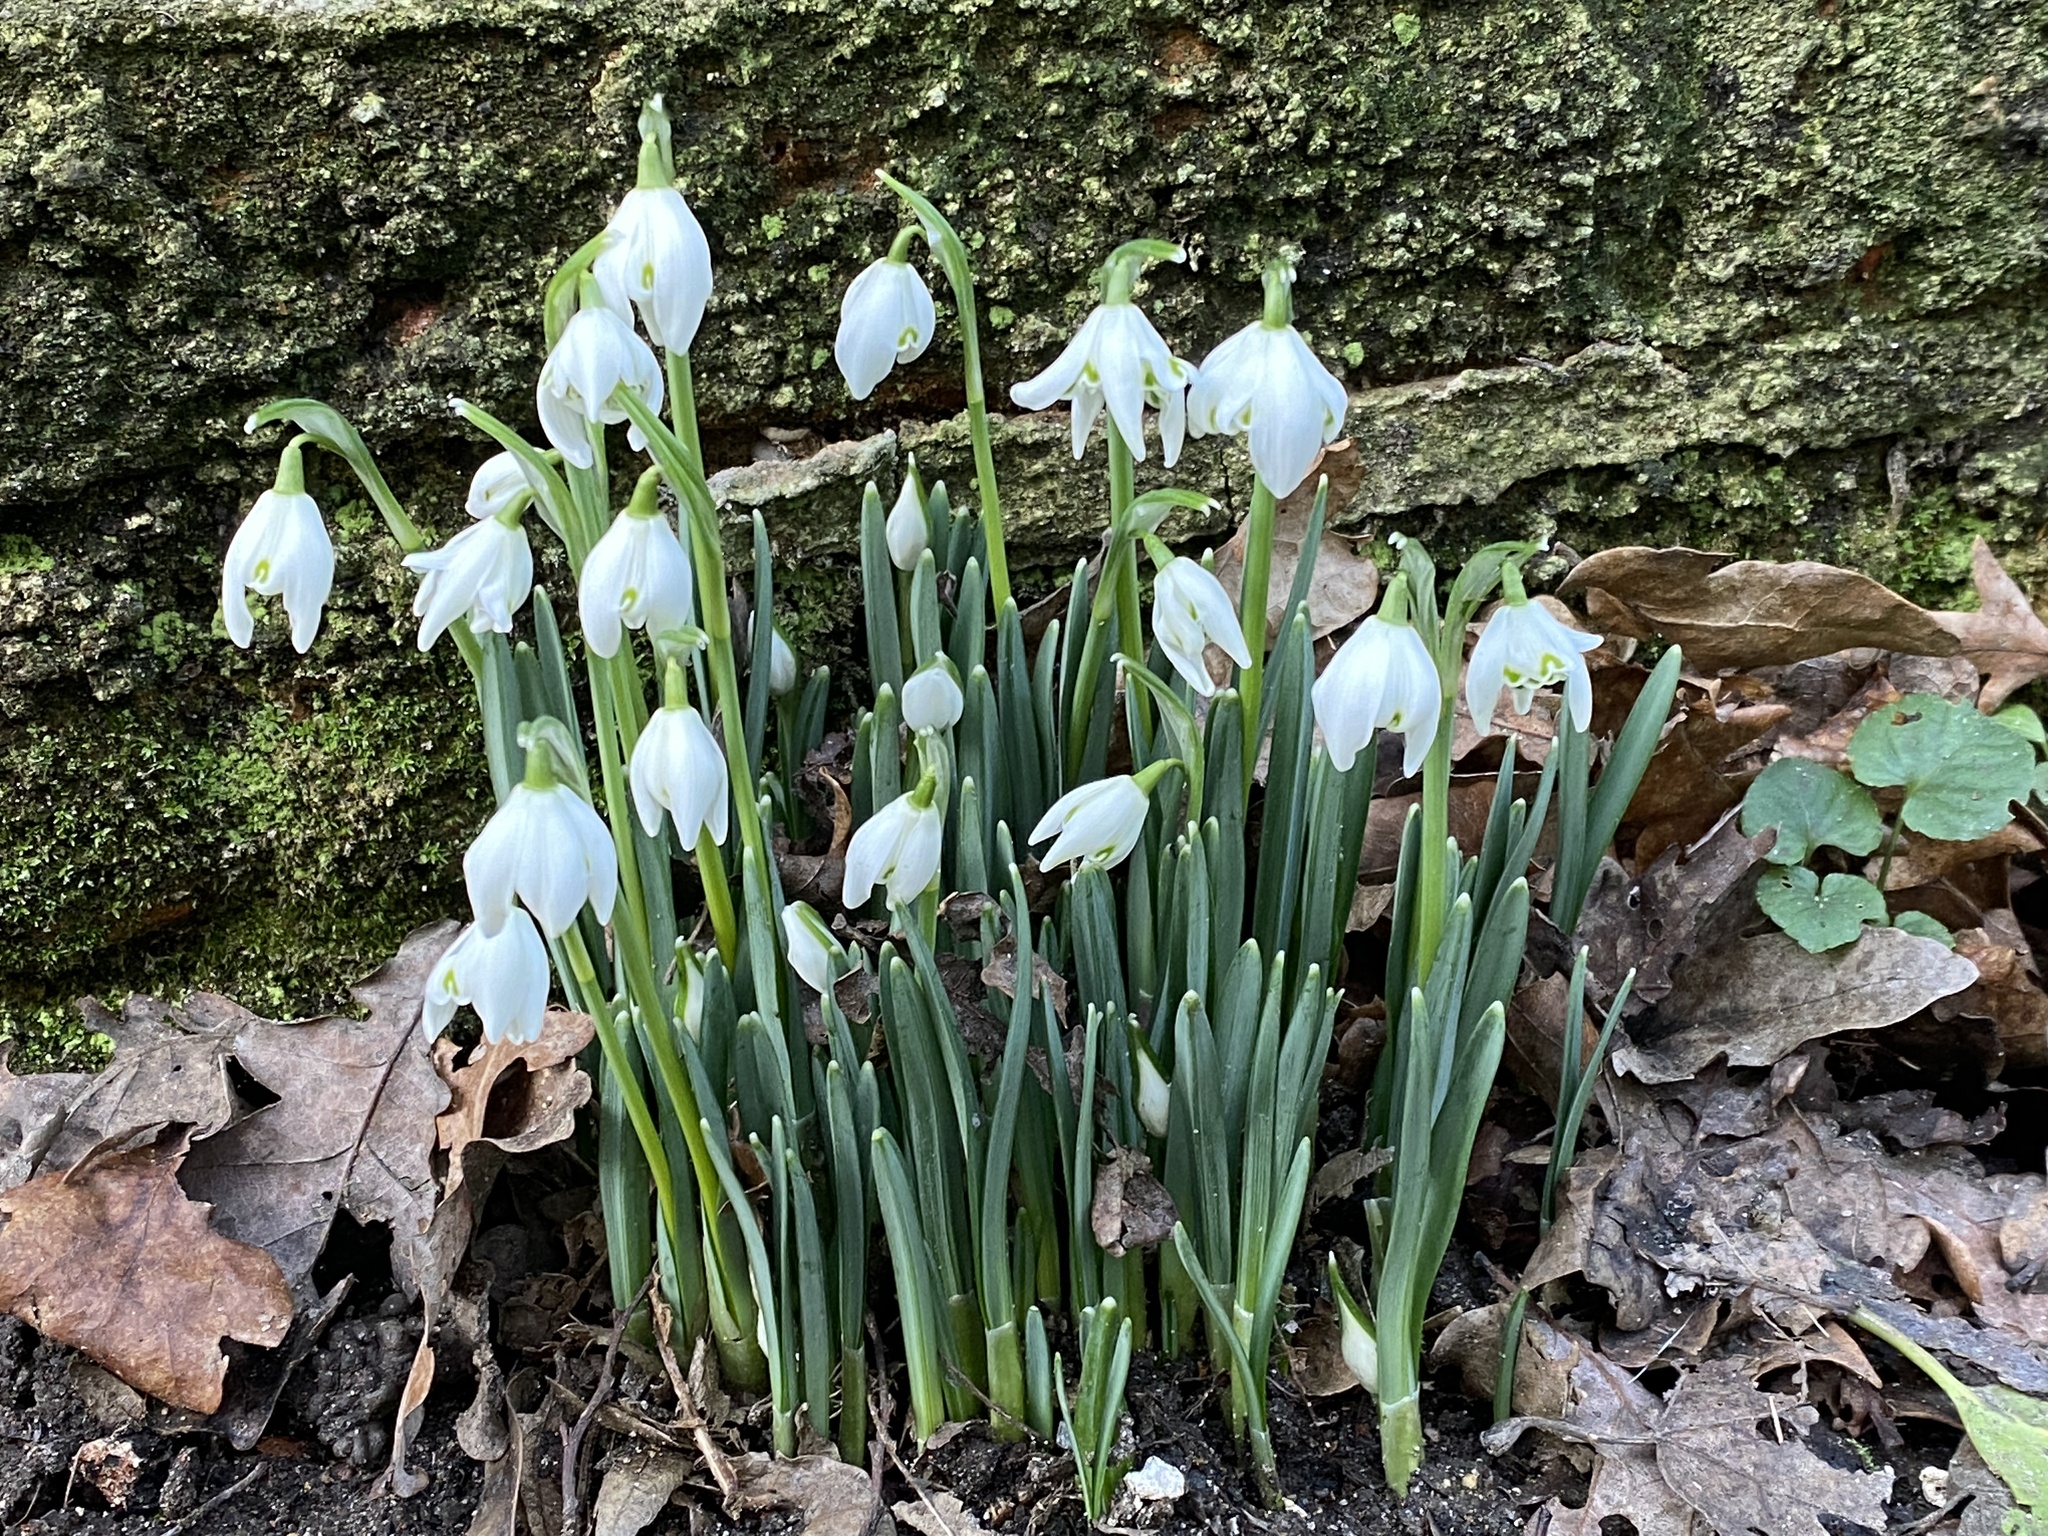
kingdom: Plantae
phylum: Tracheophyta
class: Liliopsida
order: Asparagales
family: Amaryllidaceae
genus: Galanthus
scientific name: Galanthus nivalis
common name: Snowdrop
